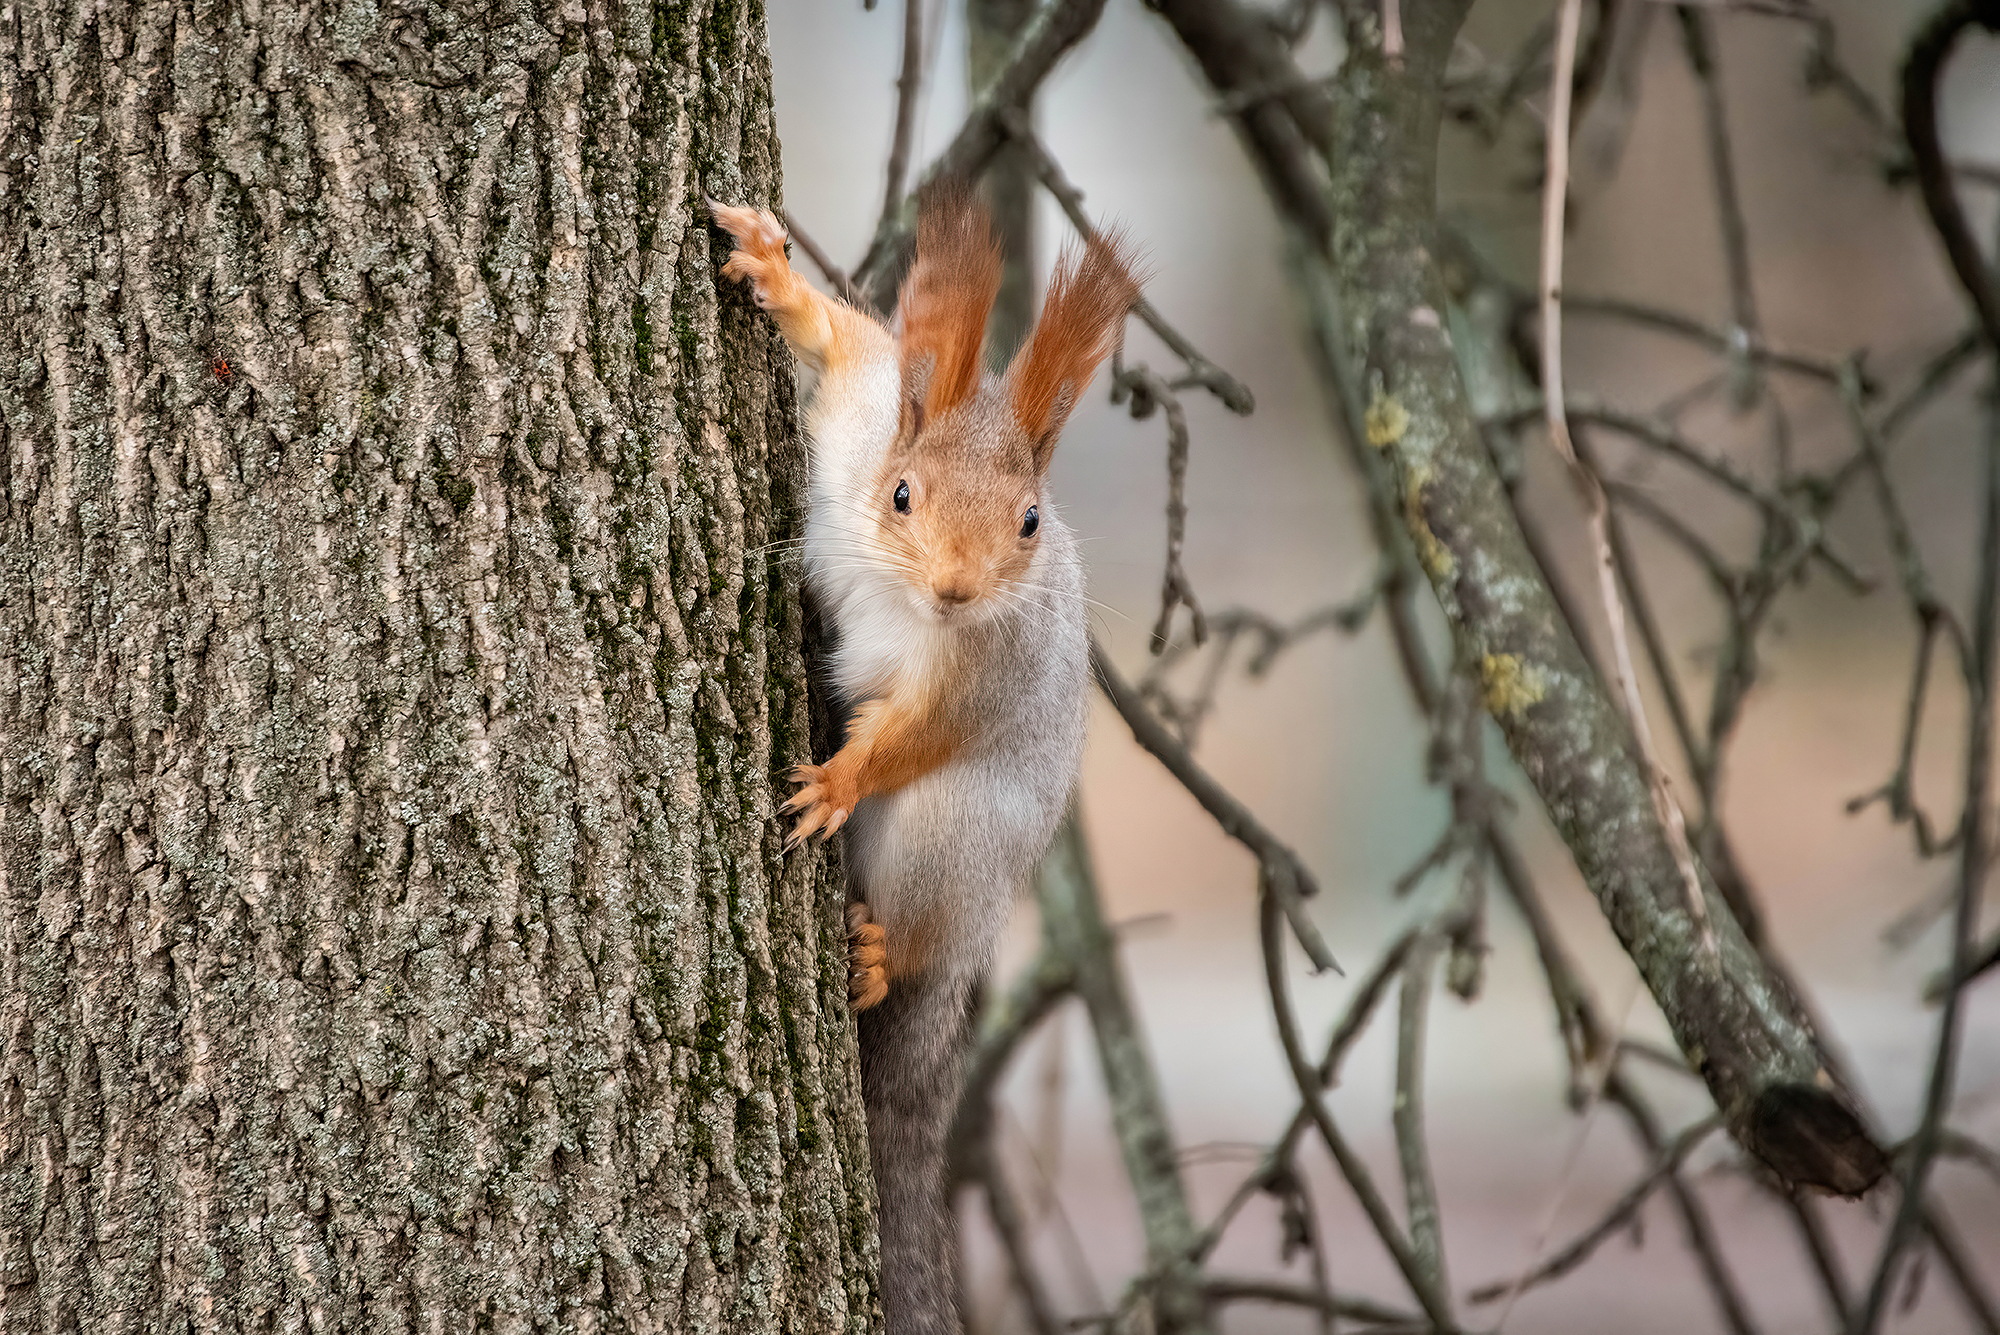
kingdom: Animalia
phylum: Chordata
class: Mammalia
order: Rodentia
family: Sciuridae
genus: Sciurus
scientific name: Sciurus vulgaris
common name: Eurasian red squirrel
